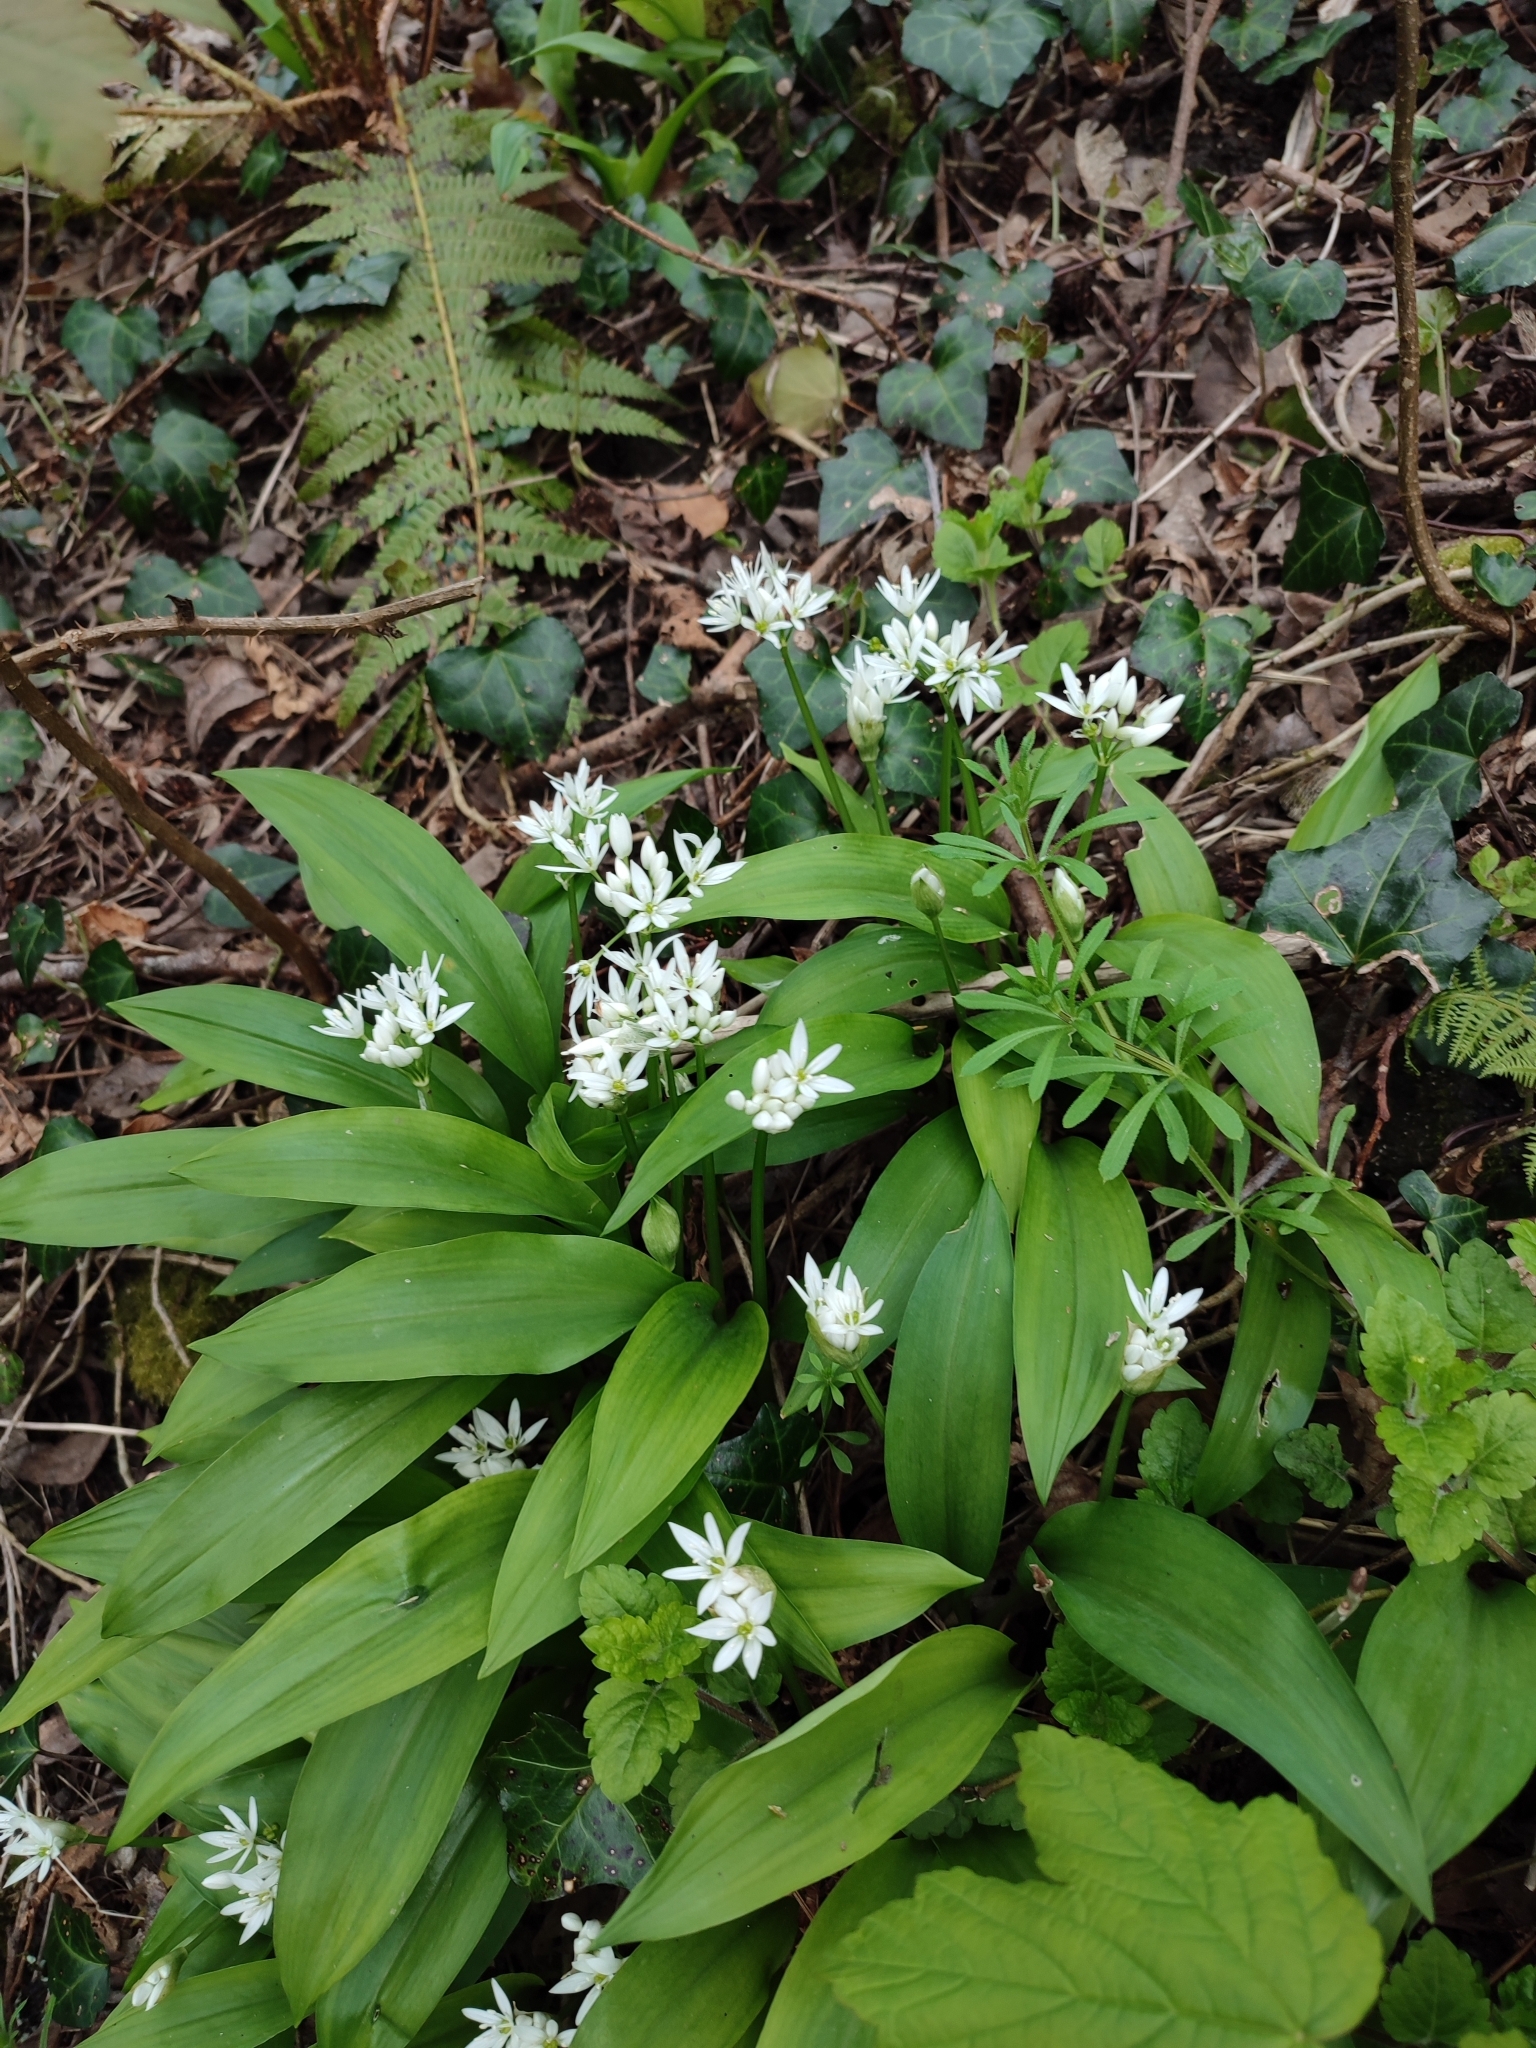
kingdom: Plantae
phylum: Tracheophyta
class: Liliopsida
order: Asparagales
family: Amaryllidaceae
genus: Allium
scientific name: Allium ursinum
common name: Ramsons
